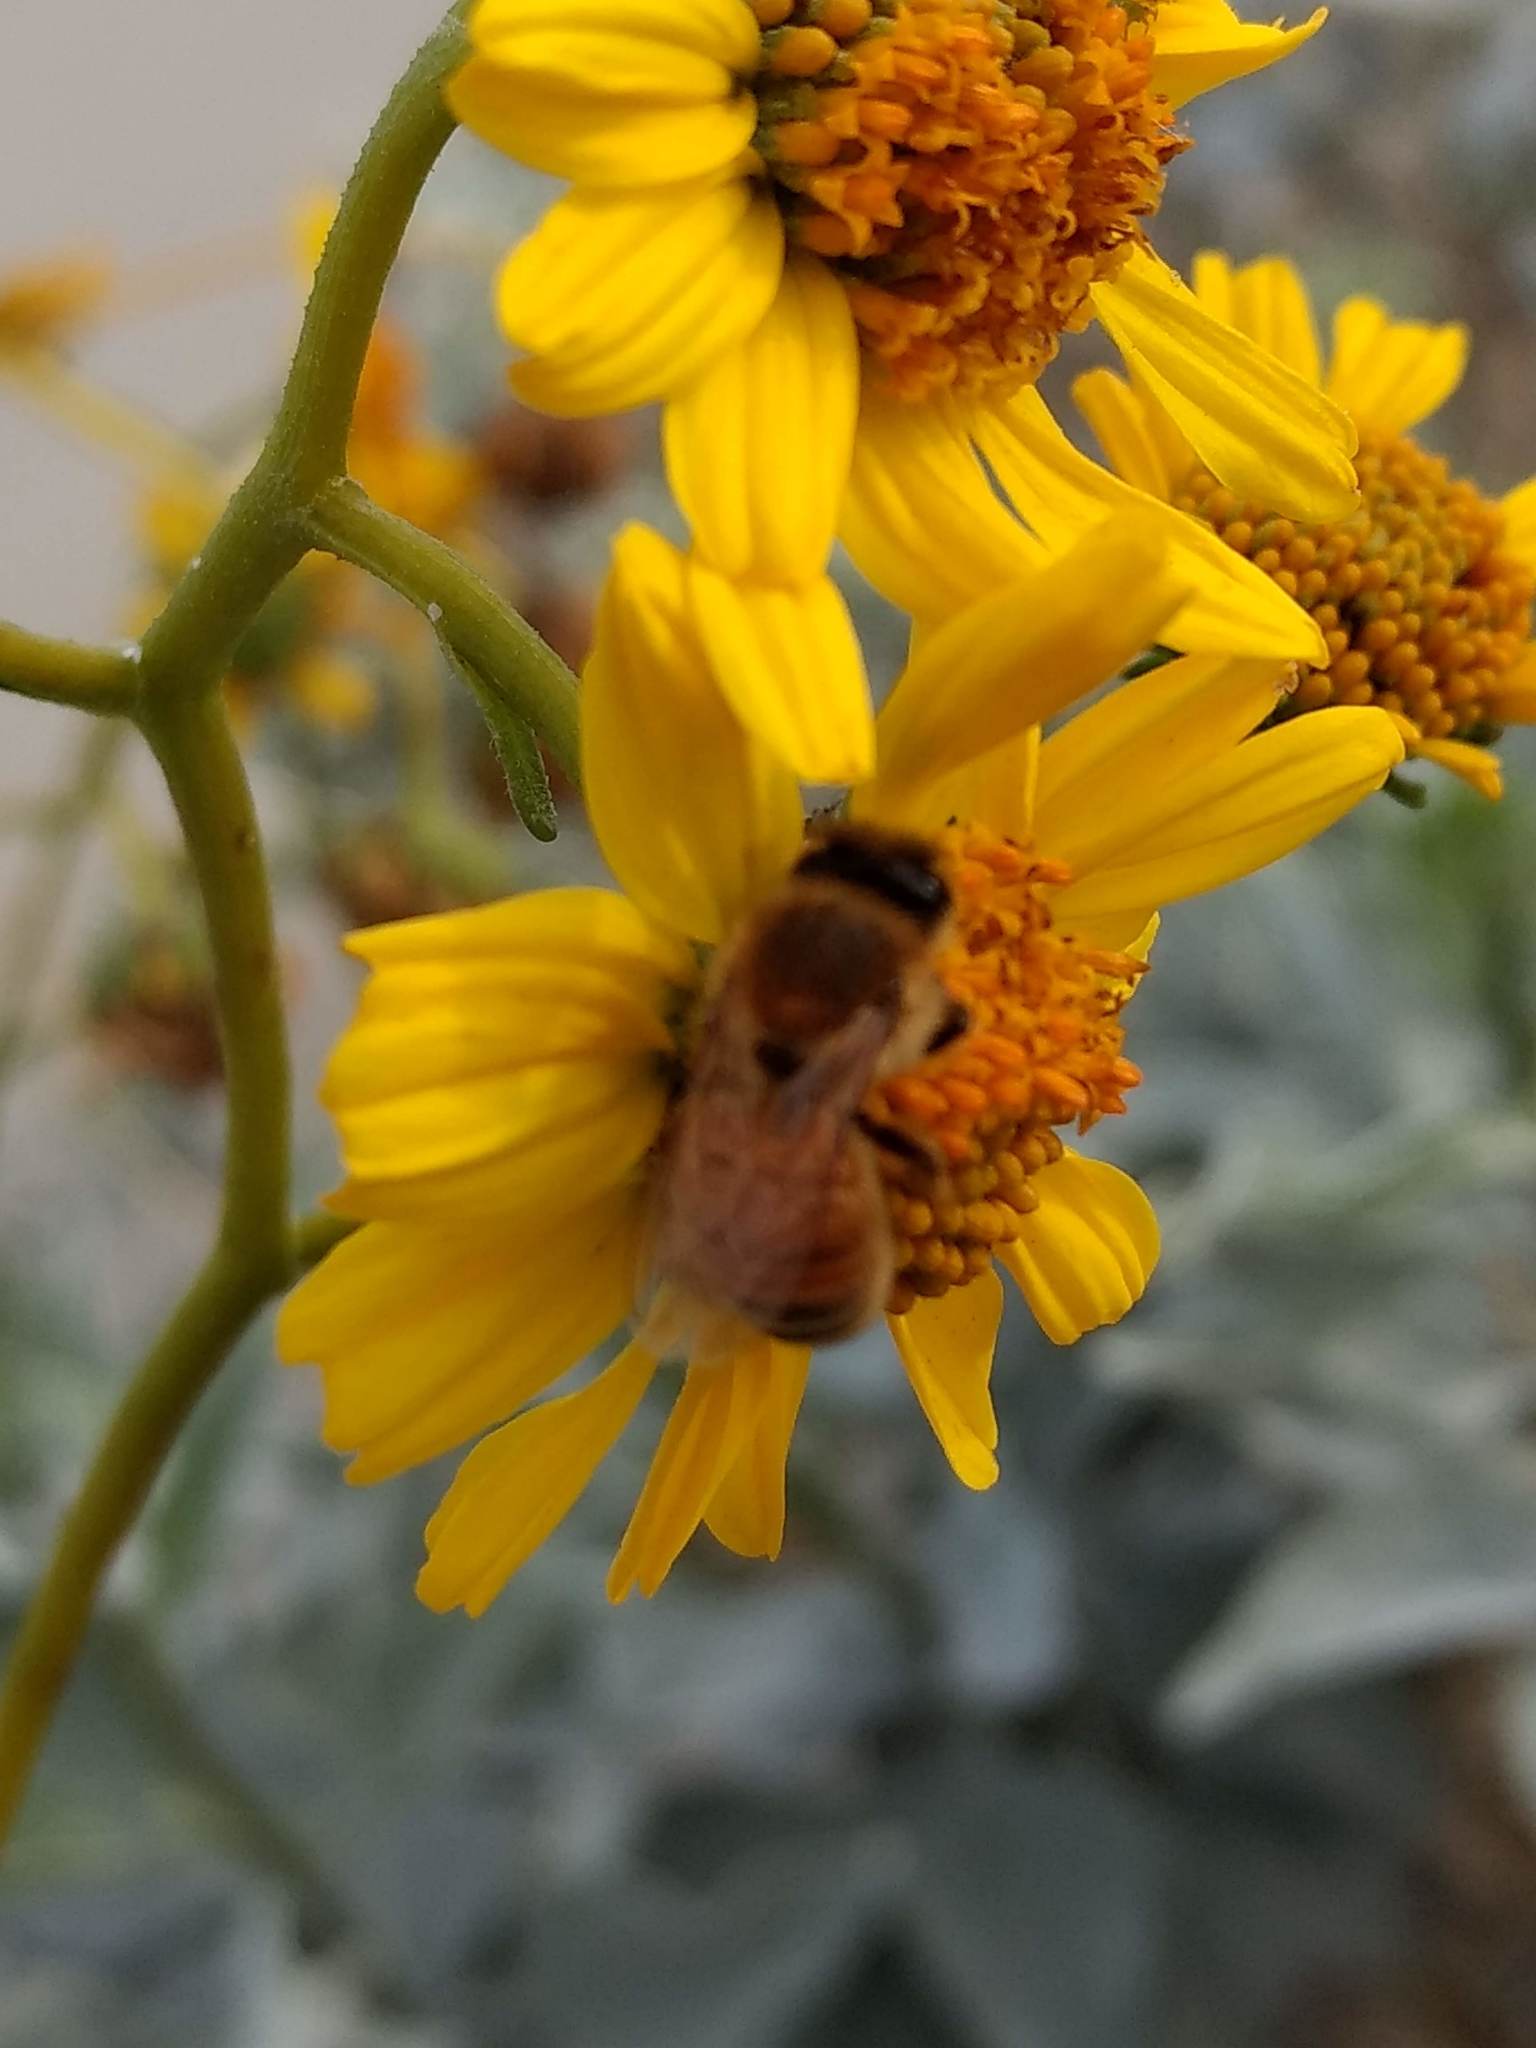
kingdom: Animalia
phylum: Arthropoda
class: Insecta
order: Hymenoptera
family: Apidae
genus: Apis
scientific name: Apis mellifera
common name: Honey bee
